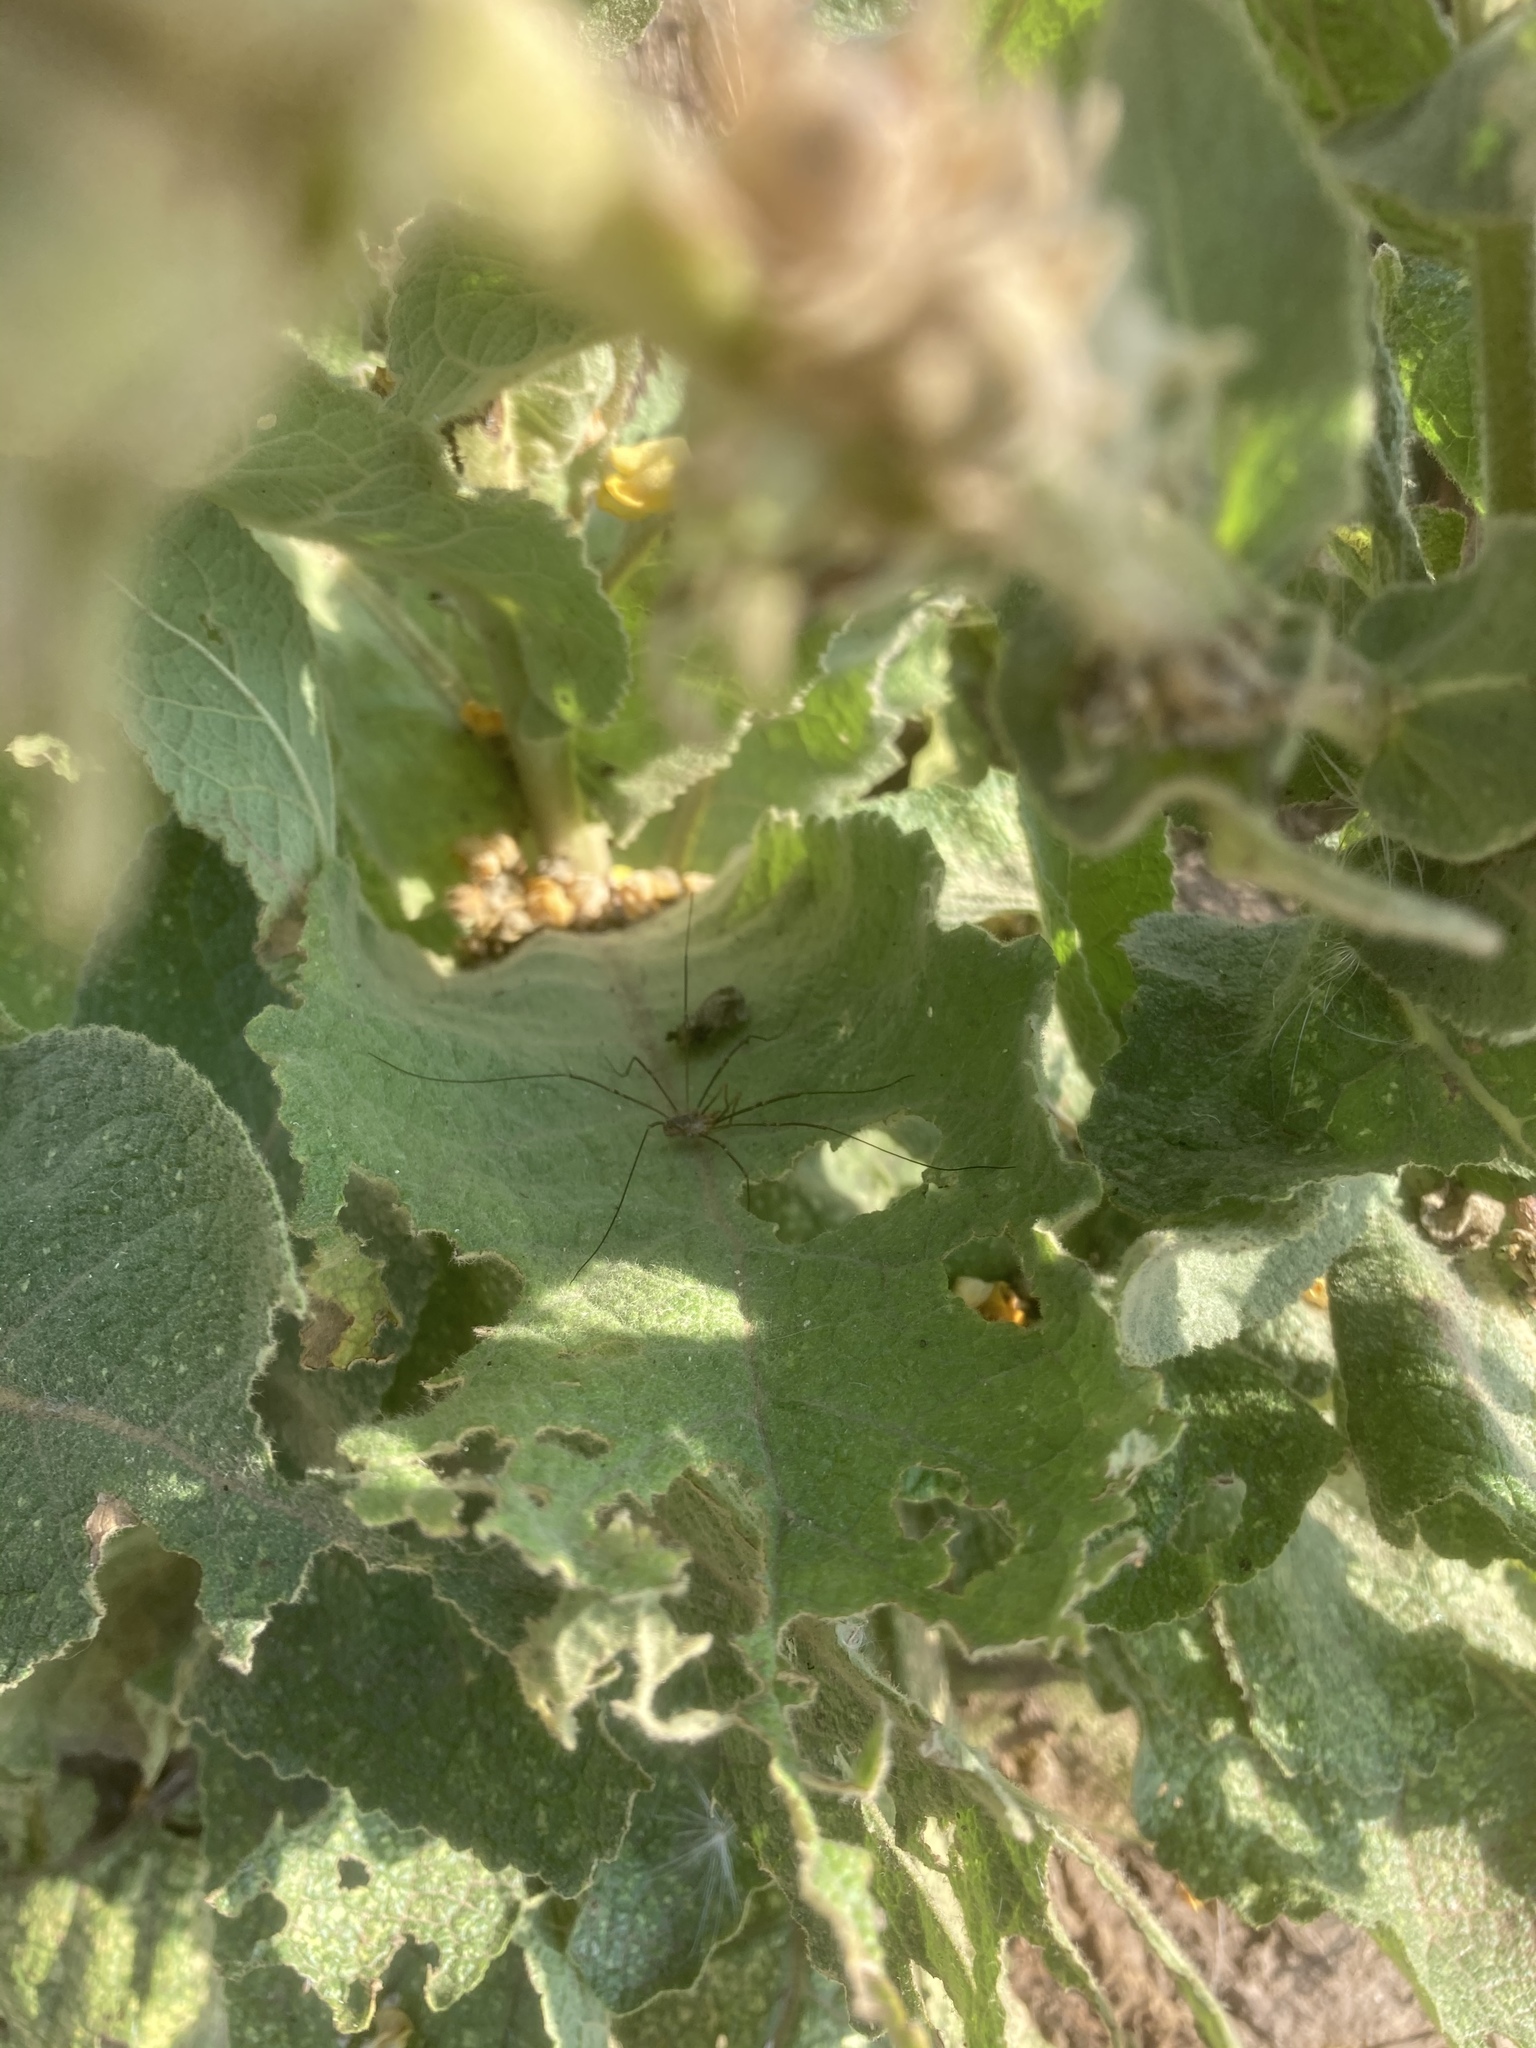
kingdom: Animalia
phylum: Arthropoda
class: Arachnida
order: Opiliones
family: Phalangiidae
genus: Phalangium
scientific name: Phalangium opilio
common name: Daddy longleg
